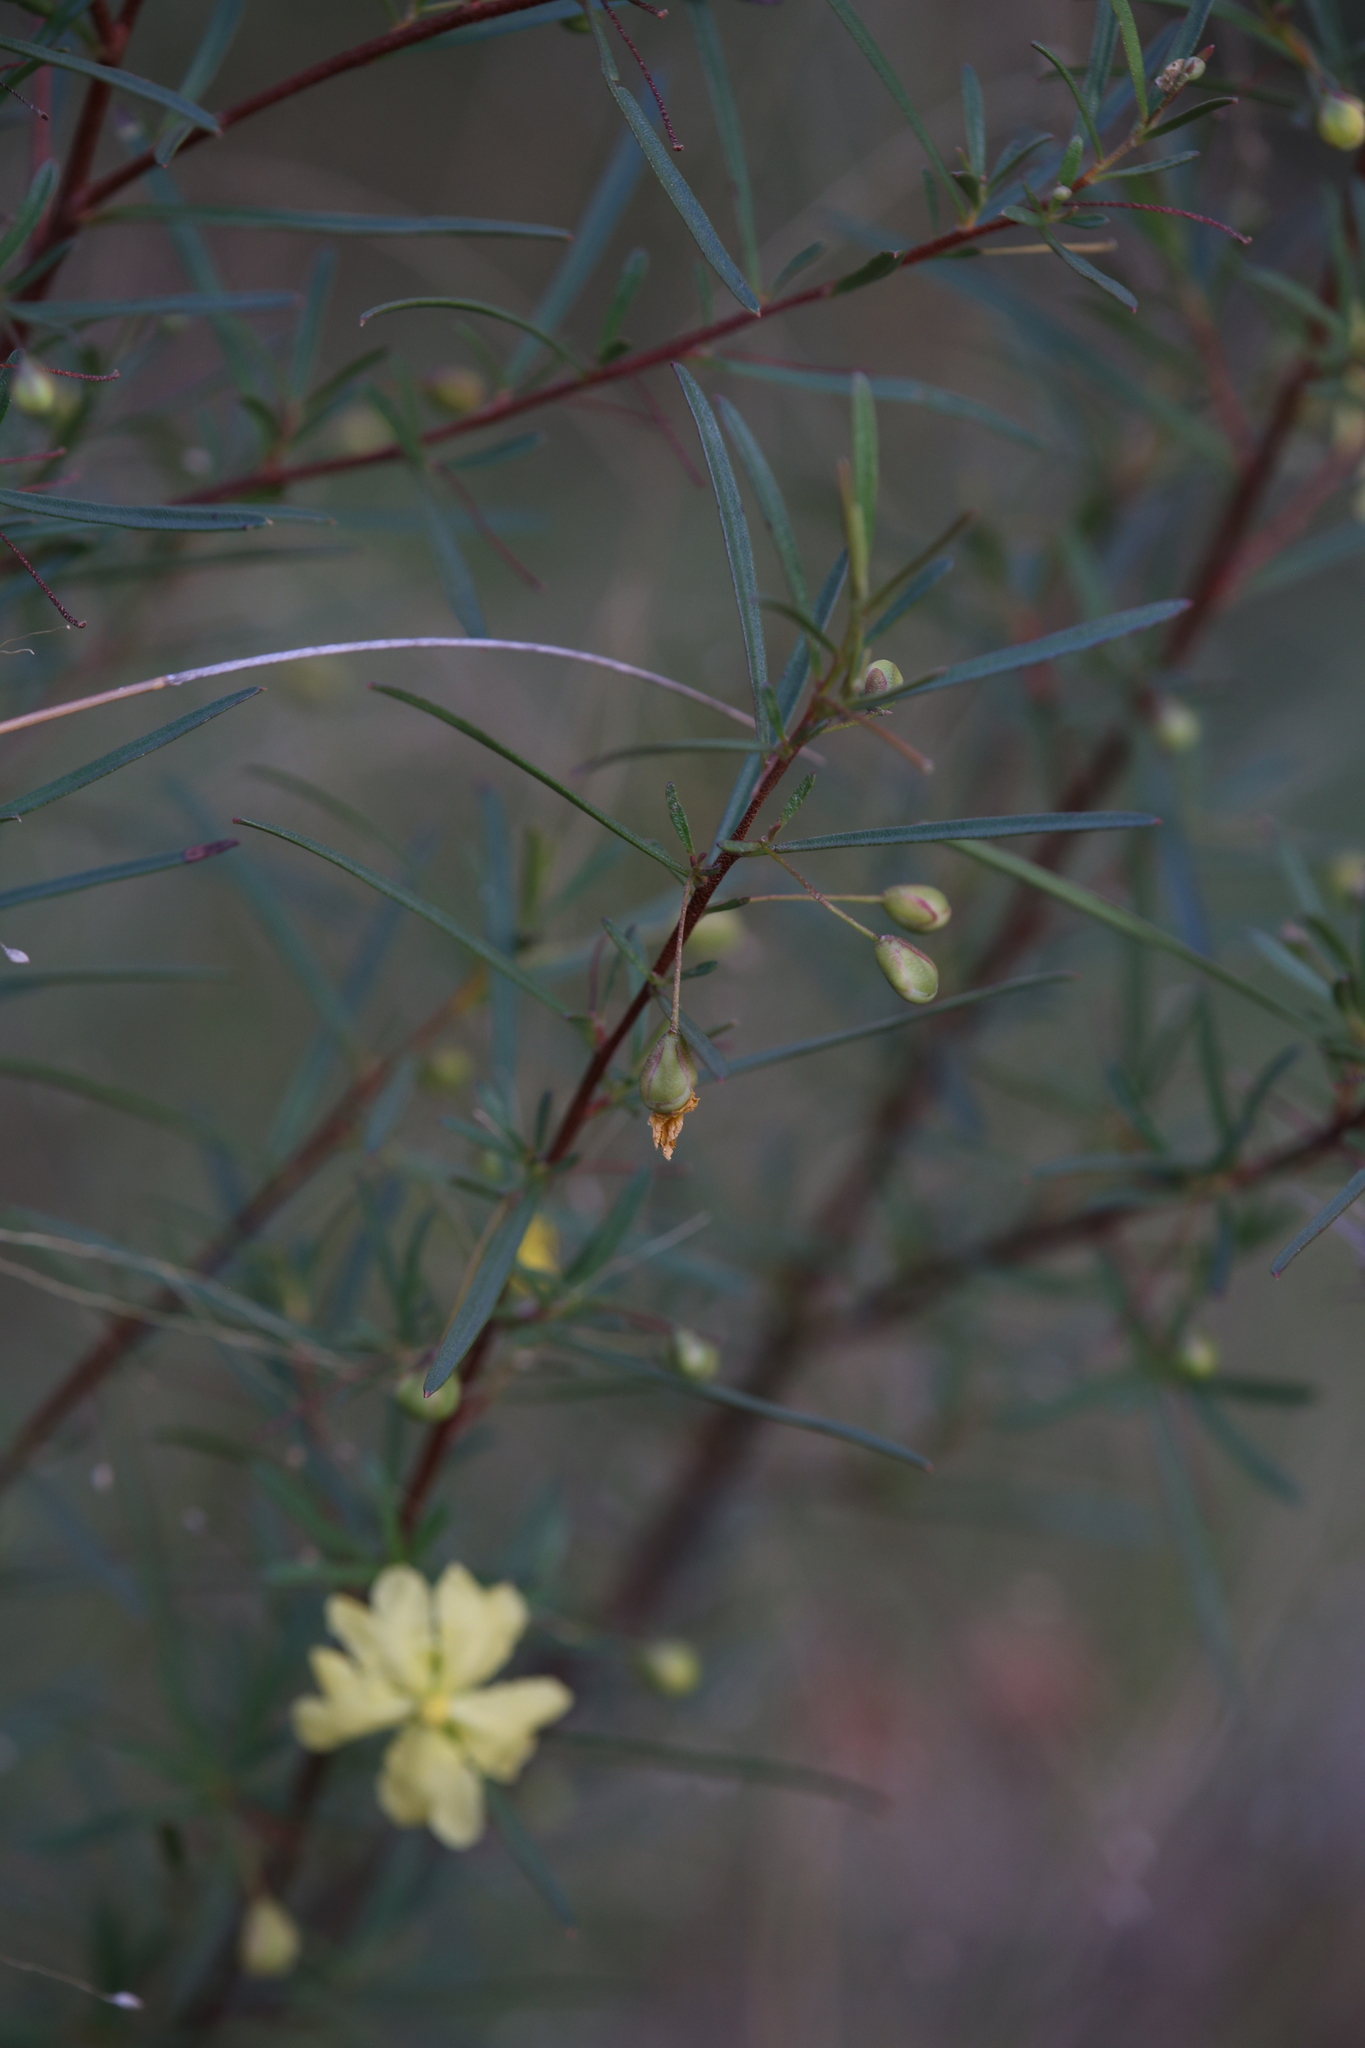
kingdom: Plantae
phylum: Tracheophyta
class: Magnoliopsida
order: Dilleniales
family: Dilleniaceae
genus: Hibbertia
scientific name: Hibbertia stirlingii
